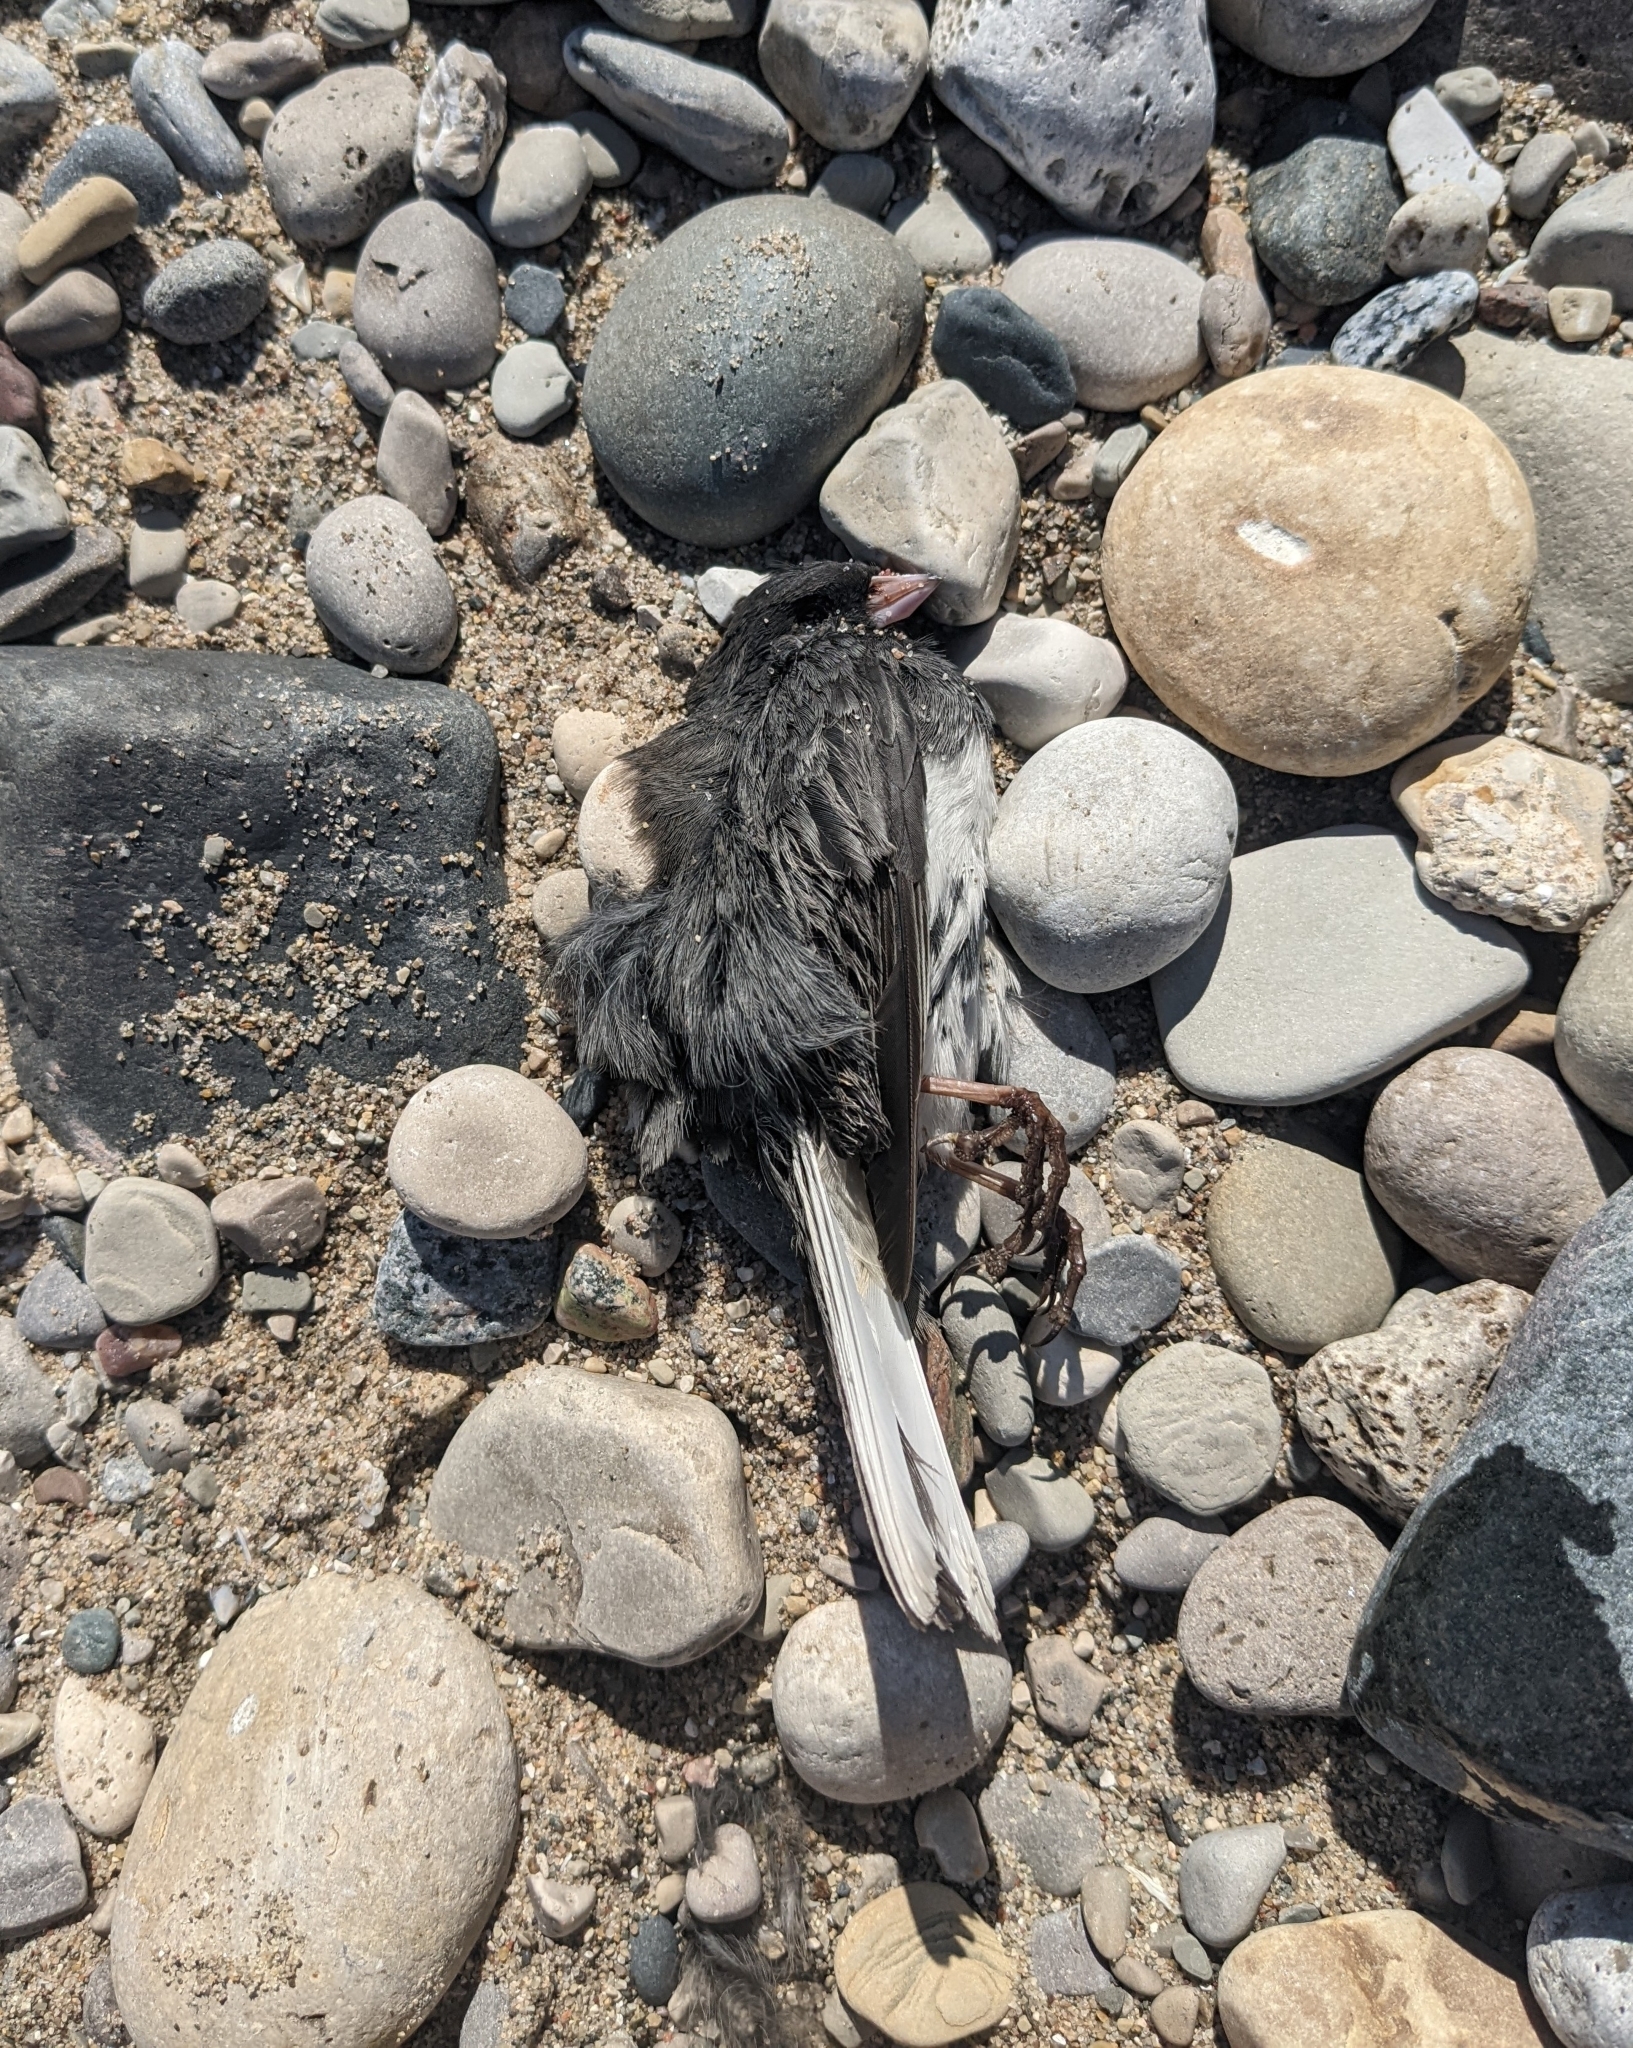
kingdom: Animalia
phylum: Chordata
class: Aves
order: Passeriformes
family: Passerellidae
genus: Junco
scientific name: Junco hyemalis
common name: Dark-eyed junco
